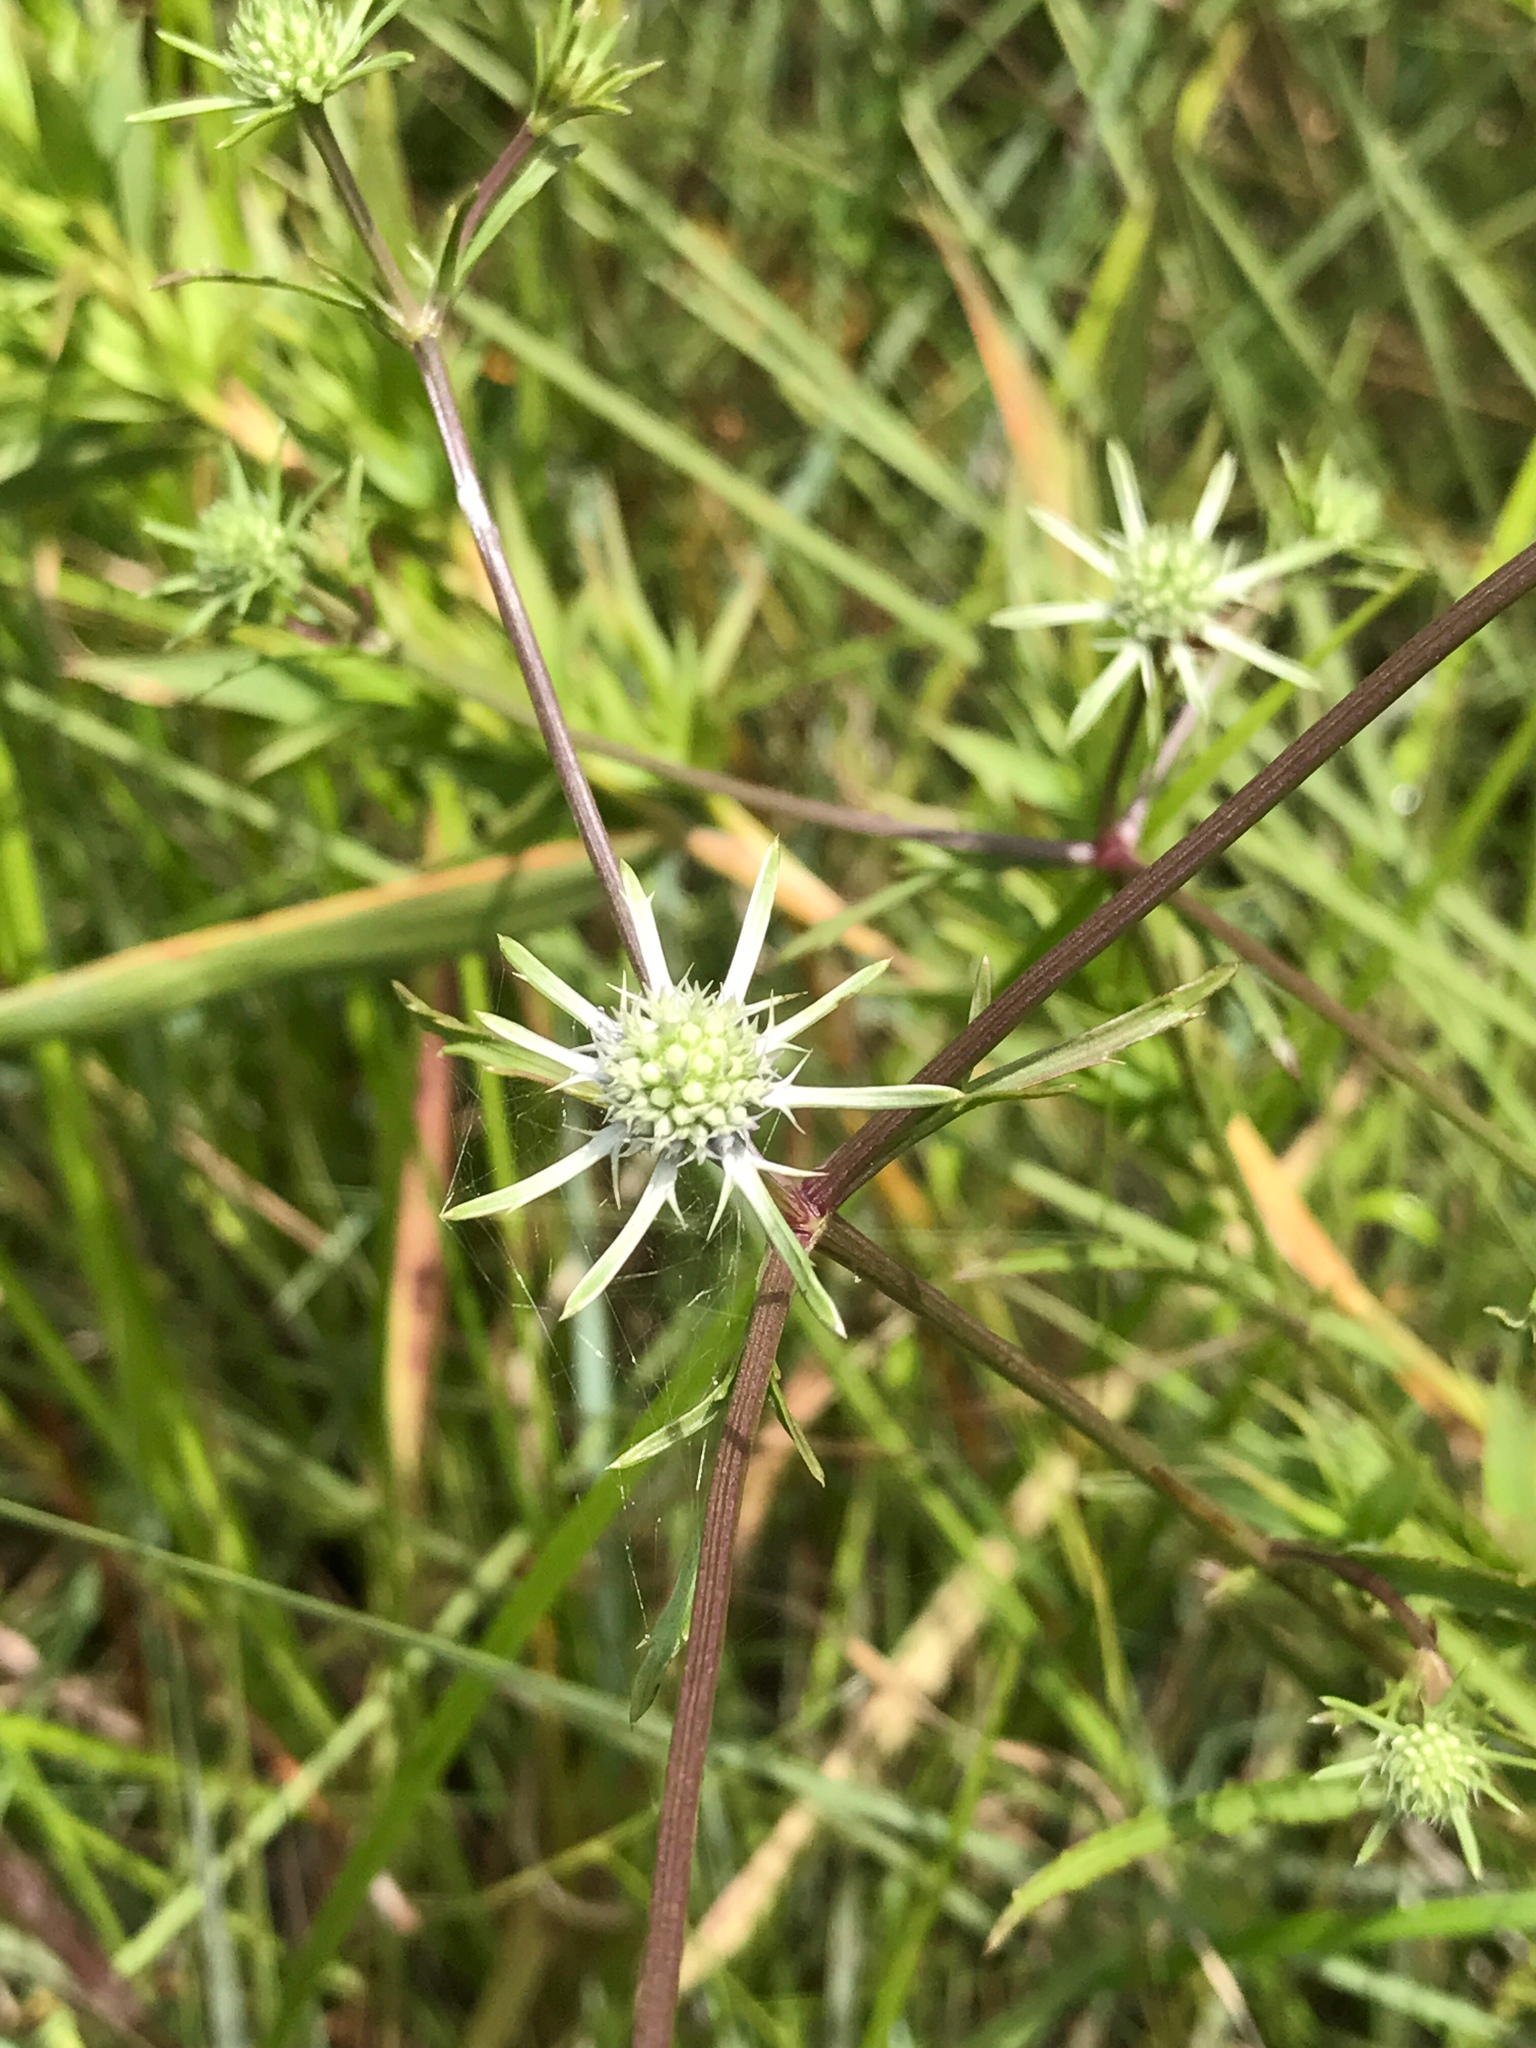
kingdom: Plantae
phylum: Tracheophyta
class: Magnoliopsida
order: Apiales
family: Apiaceae
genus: Eryngium
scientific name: Eryngium integrifolium
